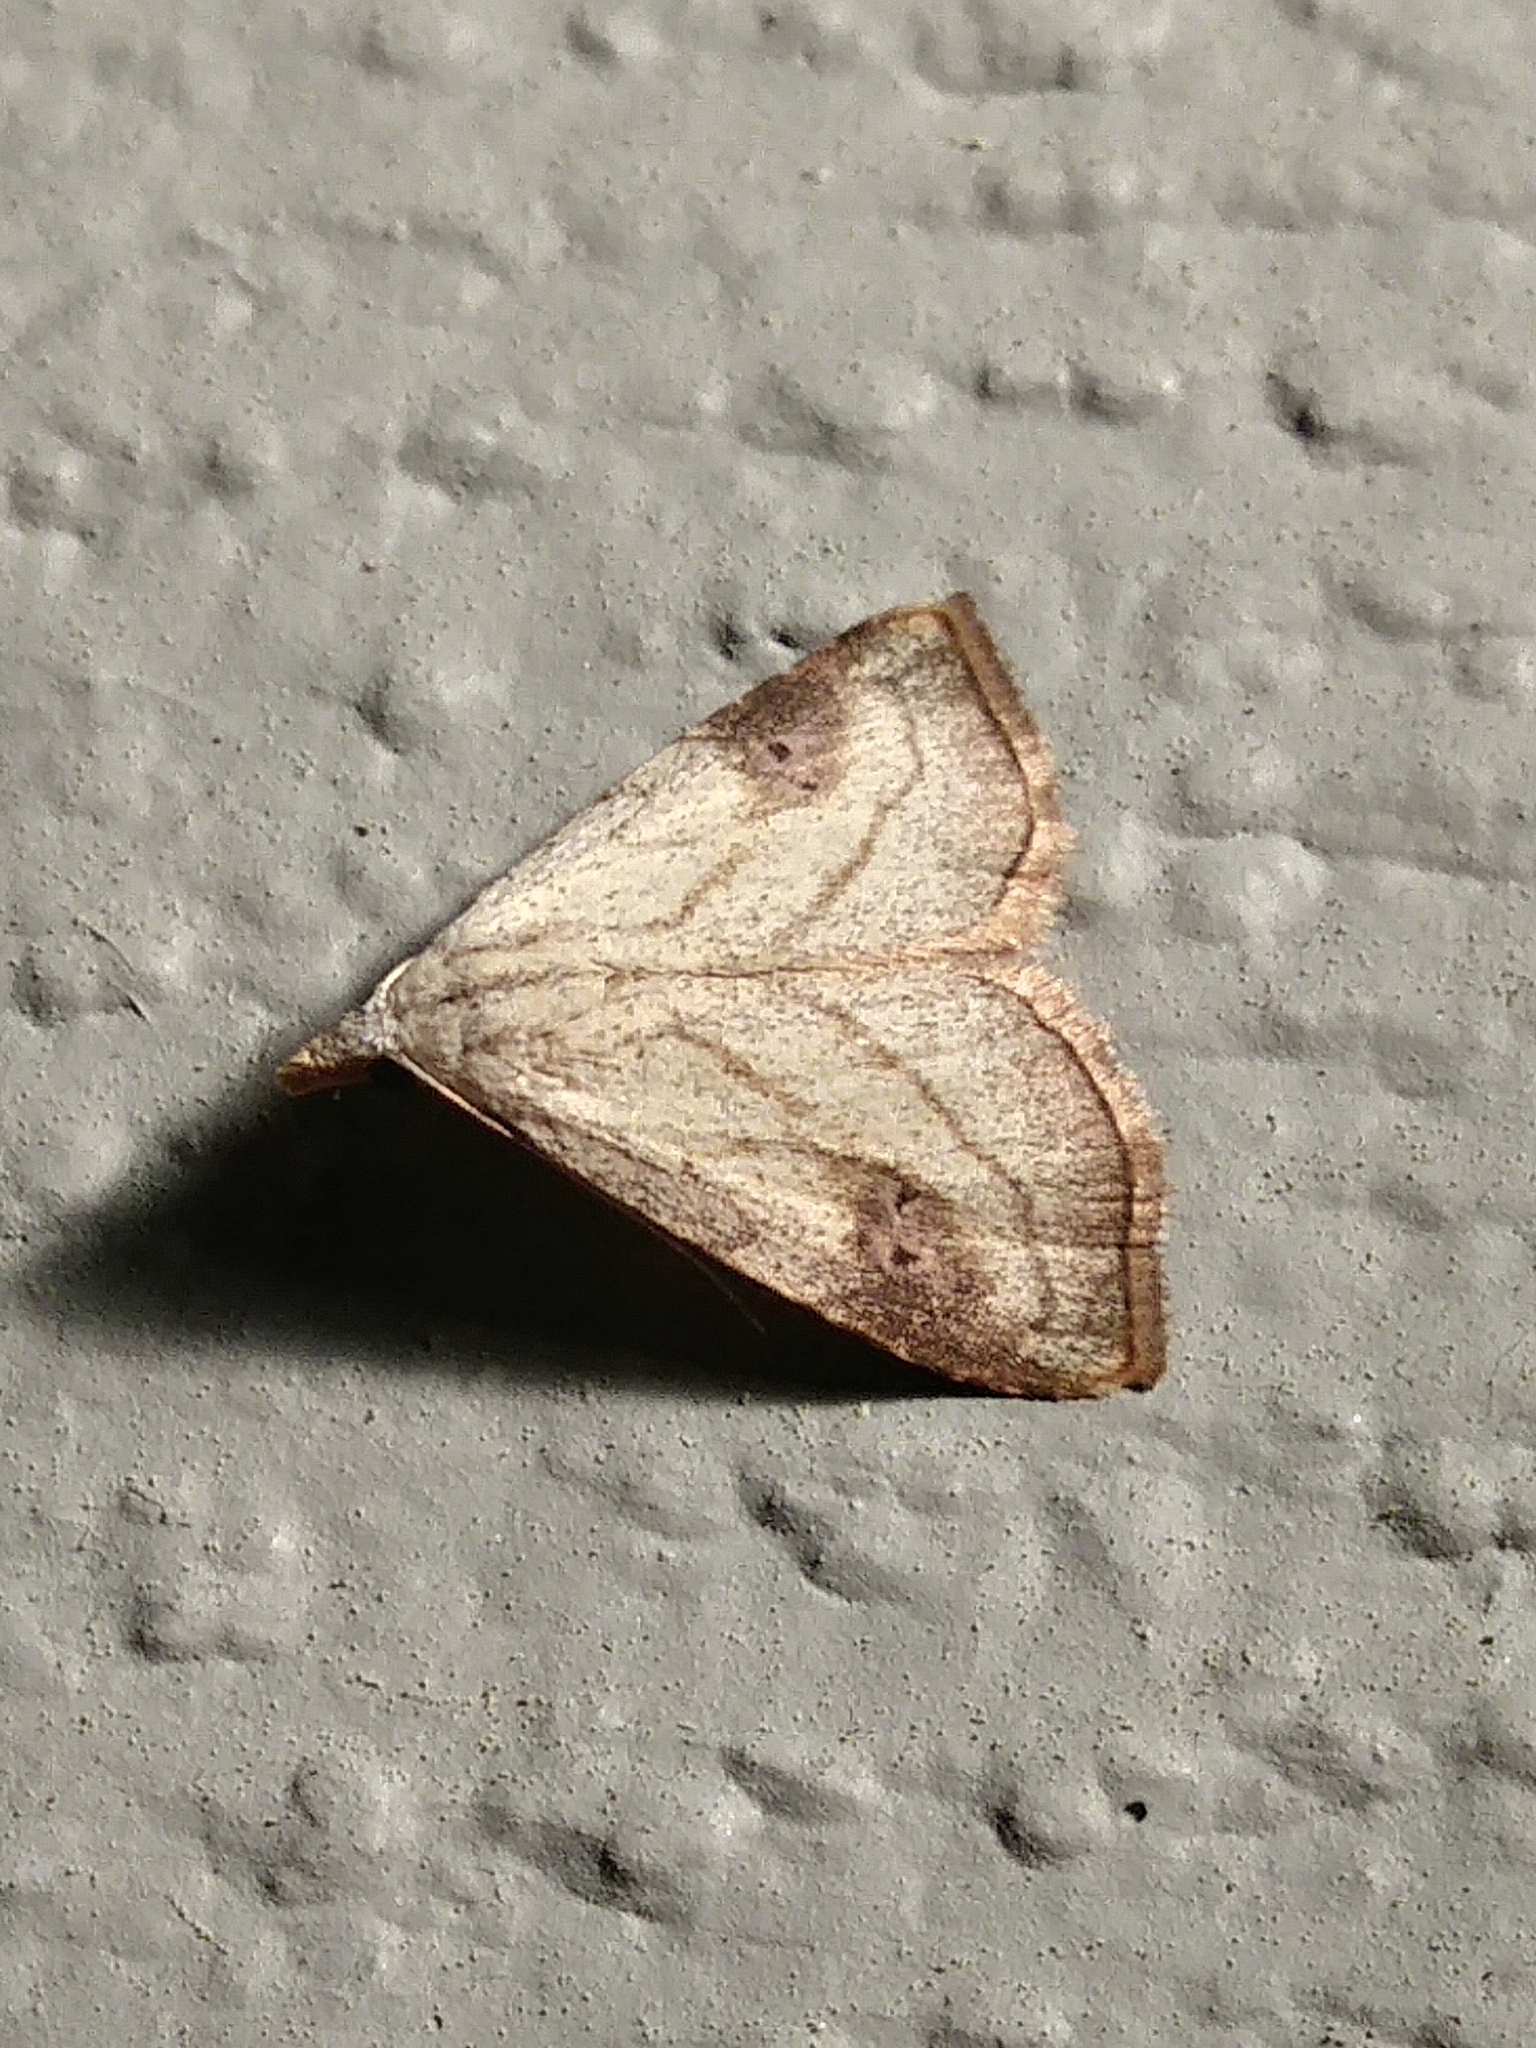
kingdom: Animalia
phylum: Arthropoda
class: Insecta
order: Lepidoptera
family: Erebidae
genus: Rivula
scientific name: Rivula propinqualis
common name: Spotted grass moth
